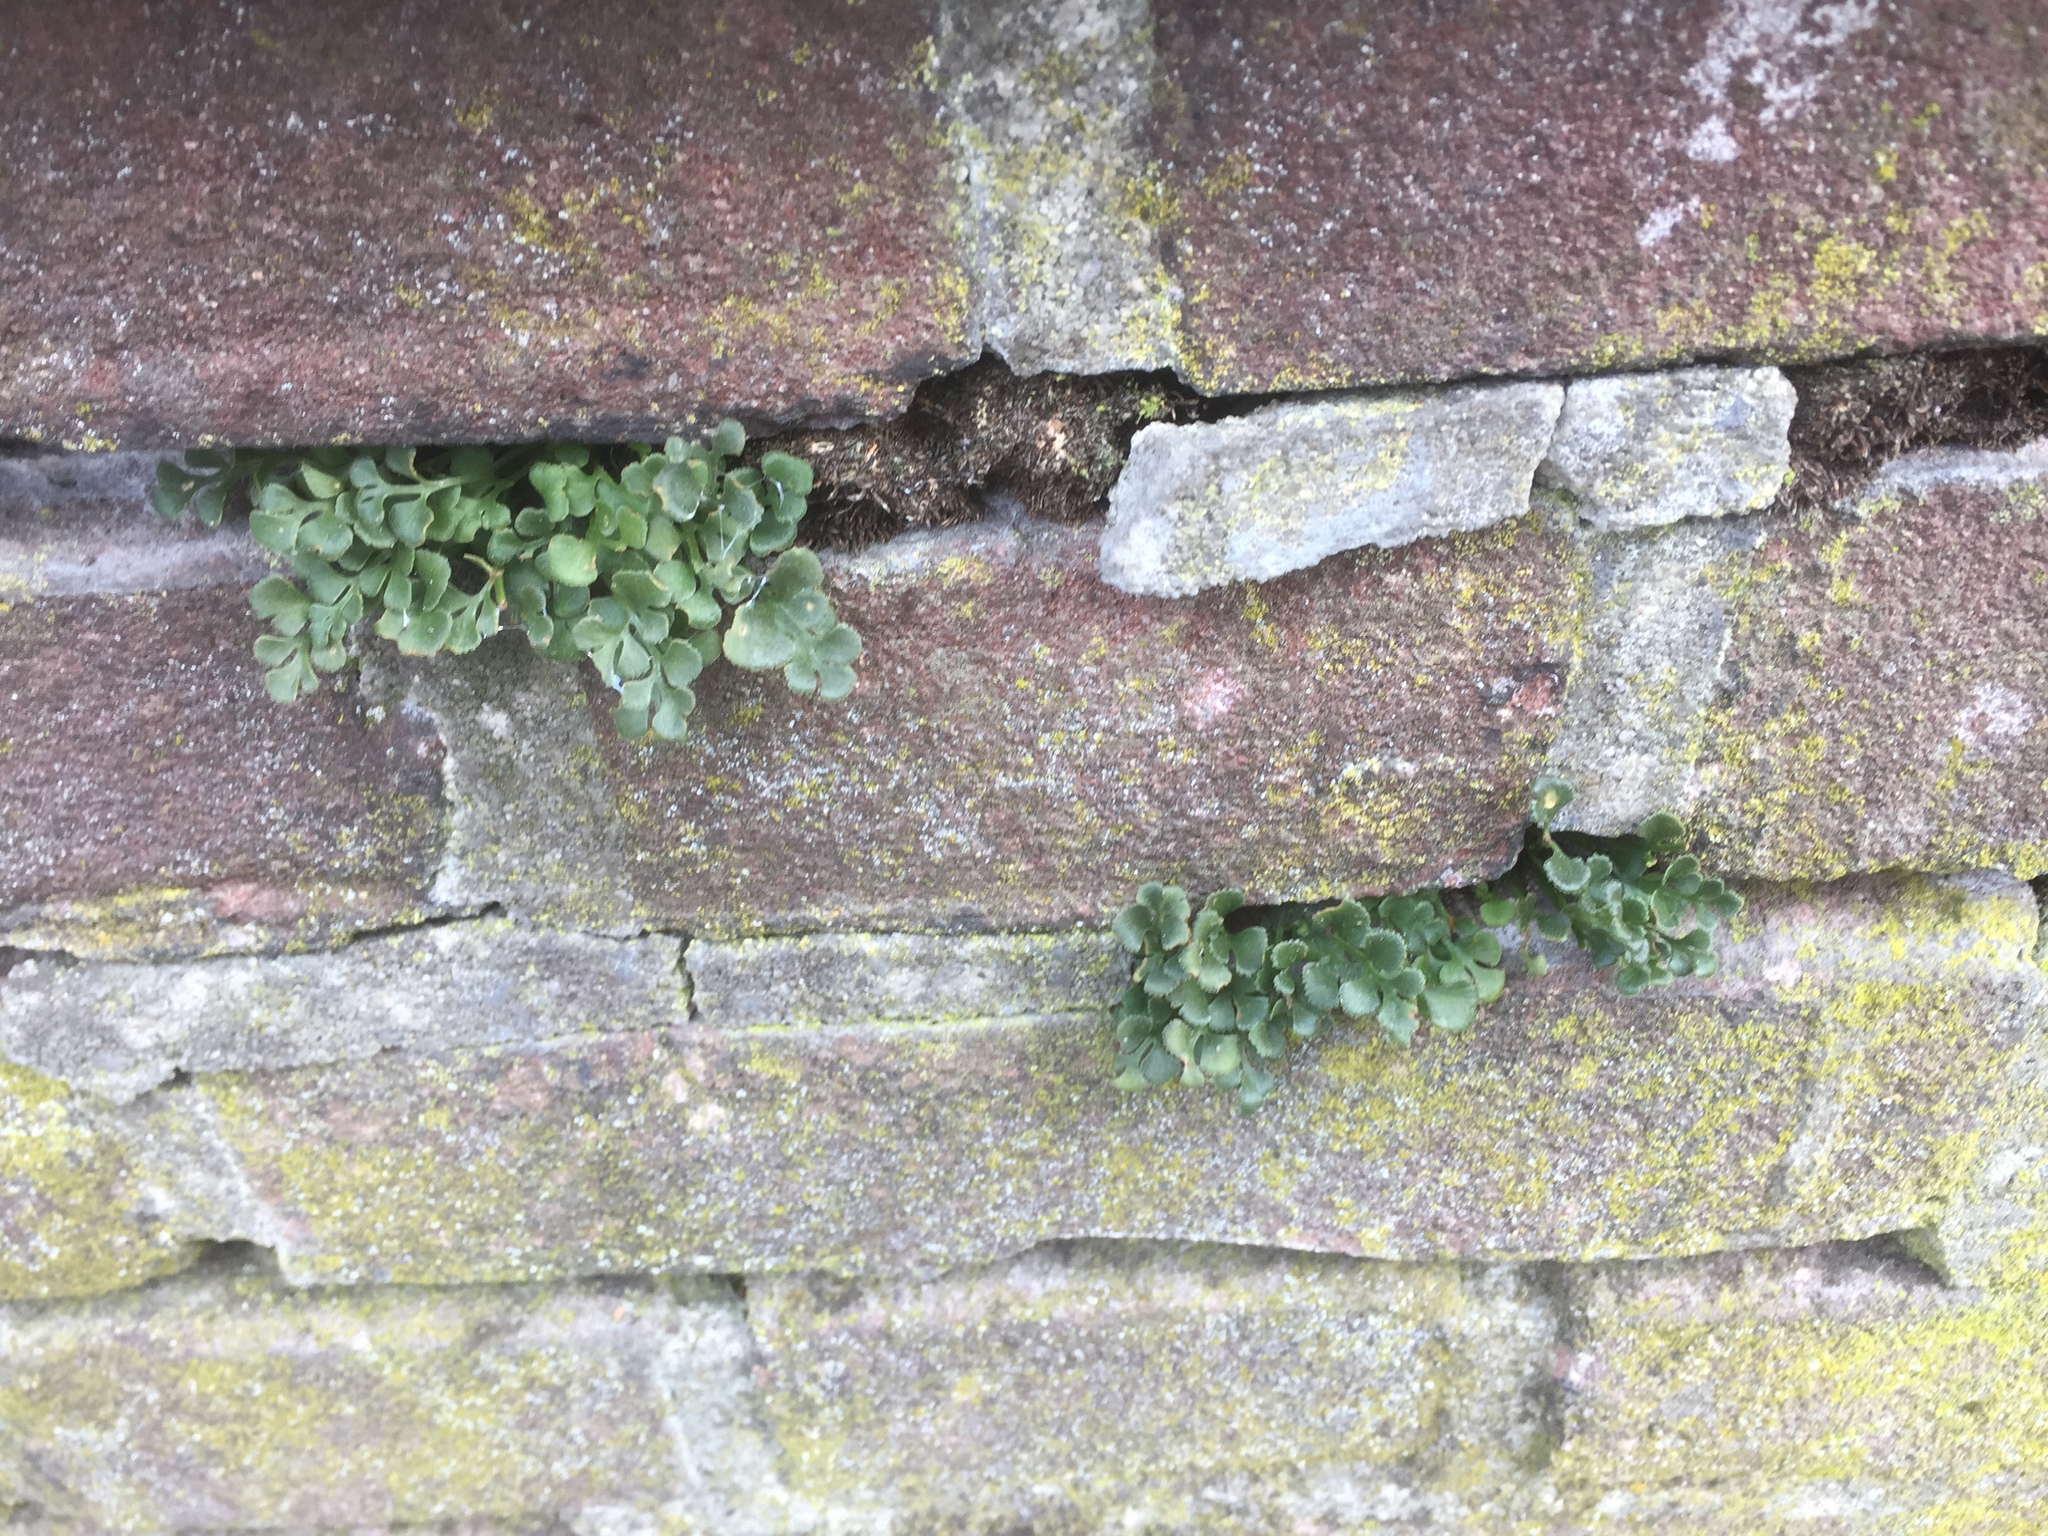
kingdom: Plantae
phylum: Tracheophyta
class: Polypodiopsida
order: Polypodiales
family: Aspleniaceae
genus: Asplenium
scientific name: Asplenium ruta-muraria
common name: Wall-rue
